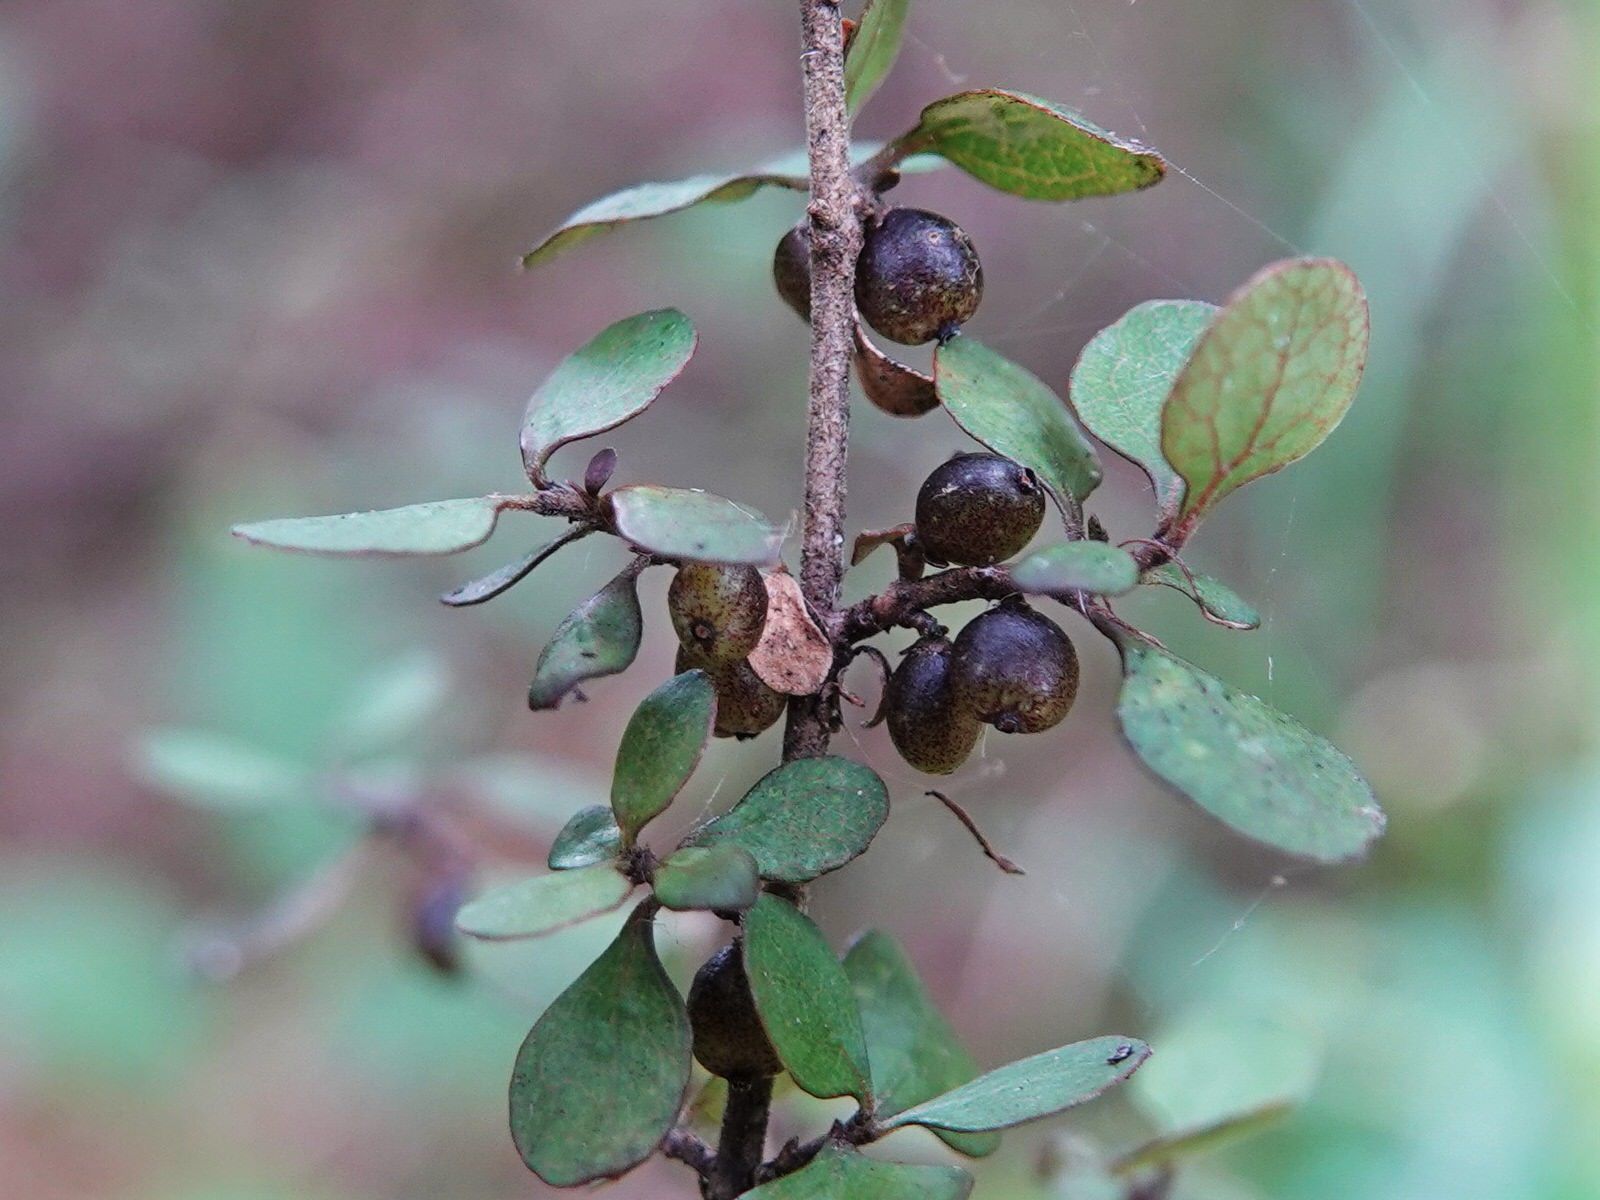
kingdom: Plantae
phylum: Tracheophyta
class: Magnoliopsida
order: Gentianales
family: Rubiaceae
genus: Coprosma
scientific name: Coprosma rhamnoides
